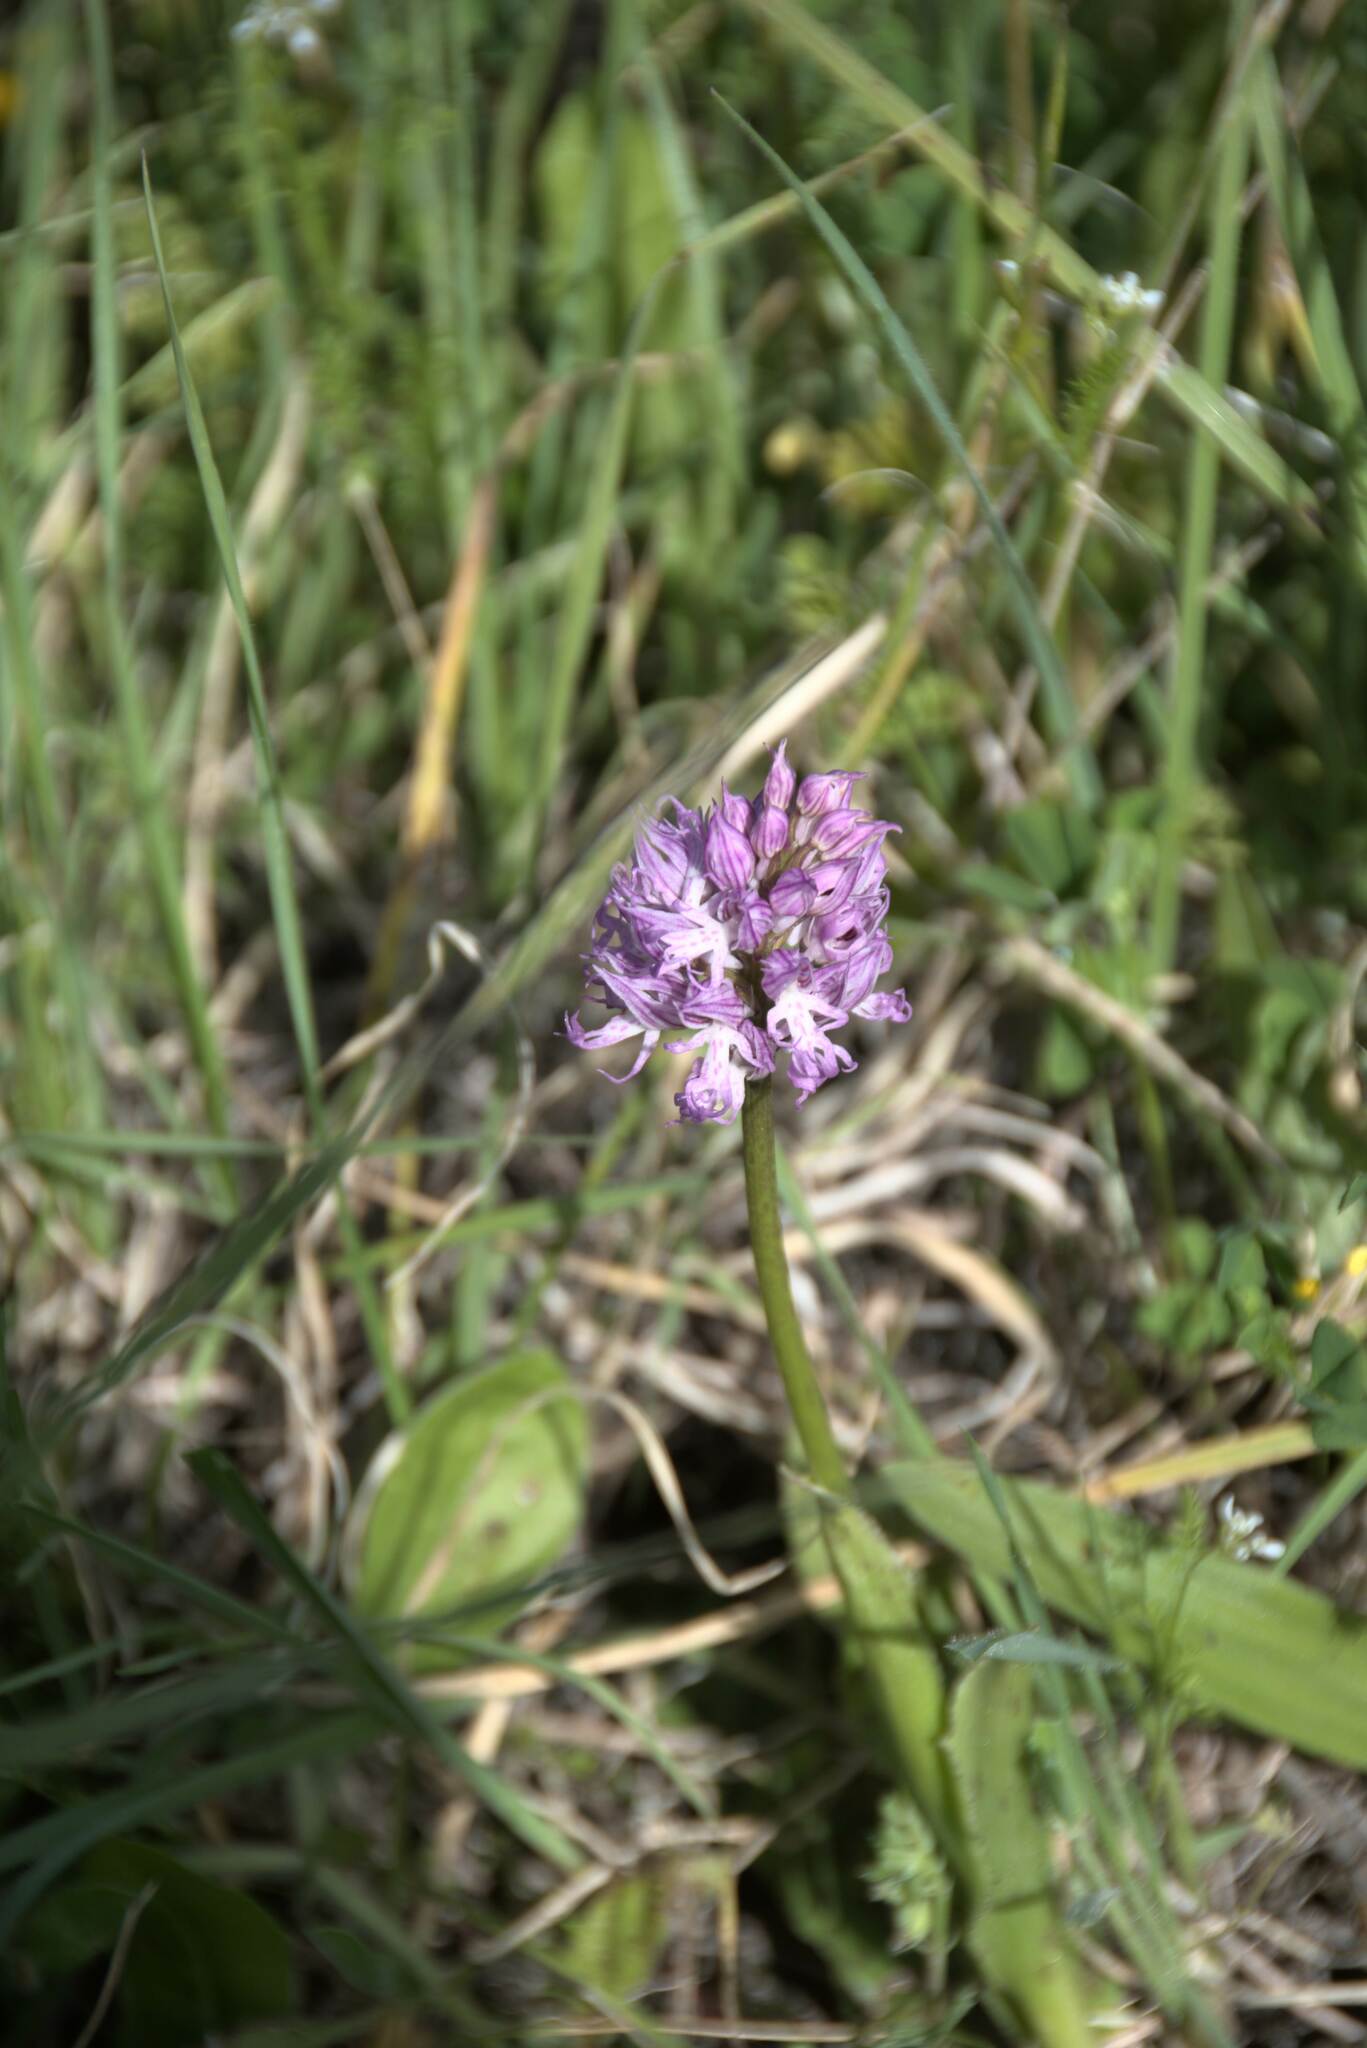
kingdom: Plantae
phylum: Tracheophyta
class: Liliopsida
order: Asparagales
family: Orchidaceae
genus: Orchis
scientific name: Orchis italica
